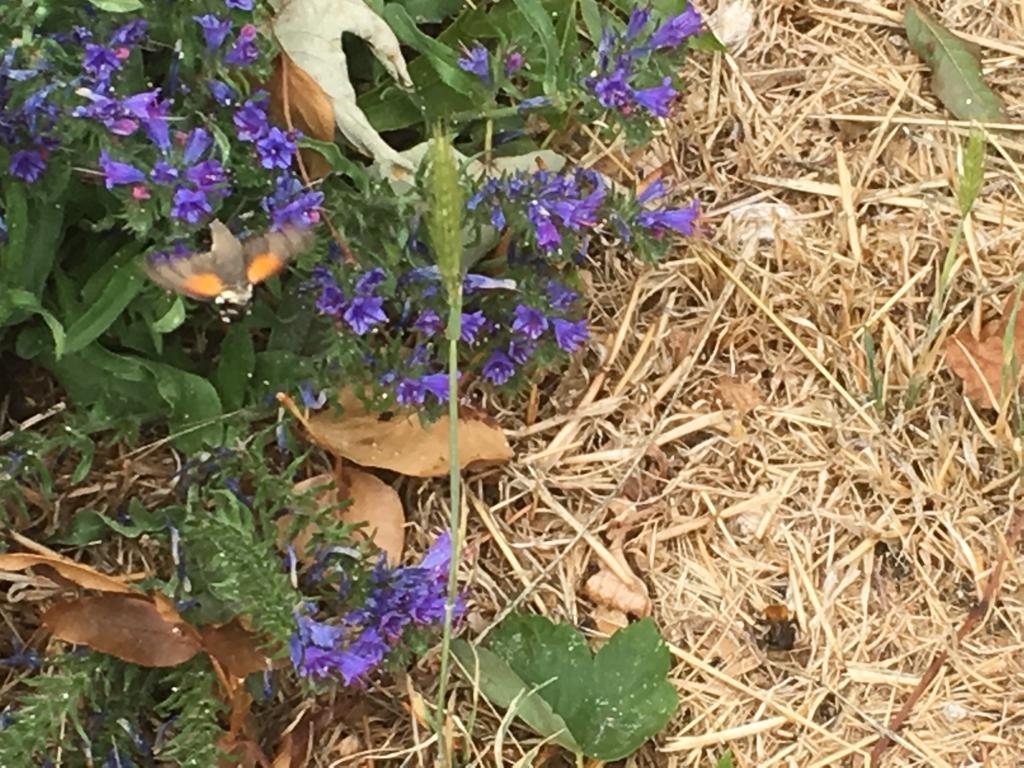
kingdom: Animalia
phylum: Arthropoda
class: Insecta
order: Lepidoptera
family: Sphingidae
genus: Macroglossum
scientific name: Macroglossum stellatarum
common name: Humming-bird hawk-moth
